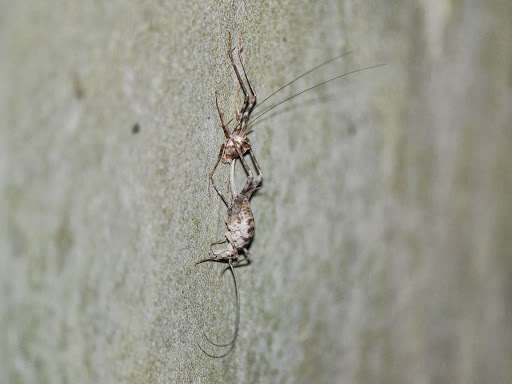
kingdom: Animalia
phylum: Arthropoda
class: Insecta
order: Orthoptera
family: Rhaphidophoridae
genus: Tachycines
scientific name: Tachycines asynamorus
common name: Greenhouse camel cricket
